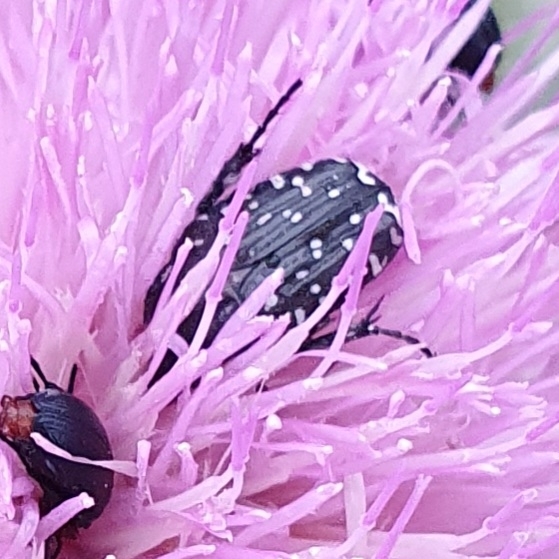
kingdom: Animalia
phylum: Arthropoda
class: Insecta
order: Coleoptera
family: Scarabaeidae
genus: Oxythyrea
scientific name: Oxythyrea funesta
